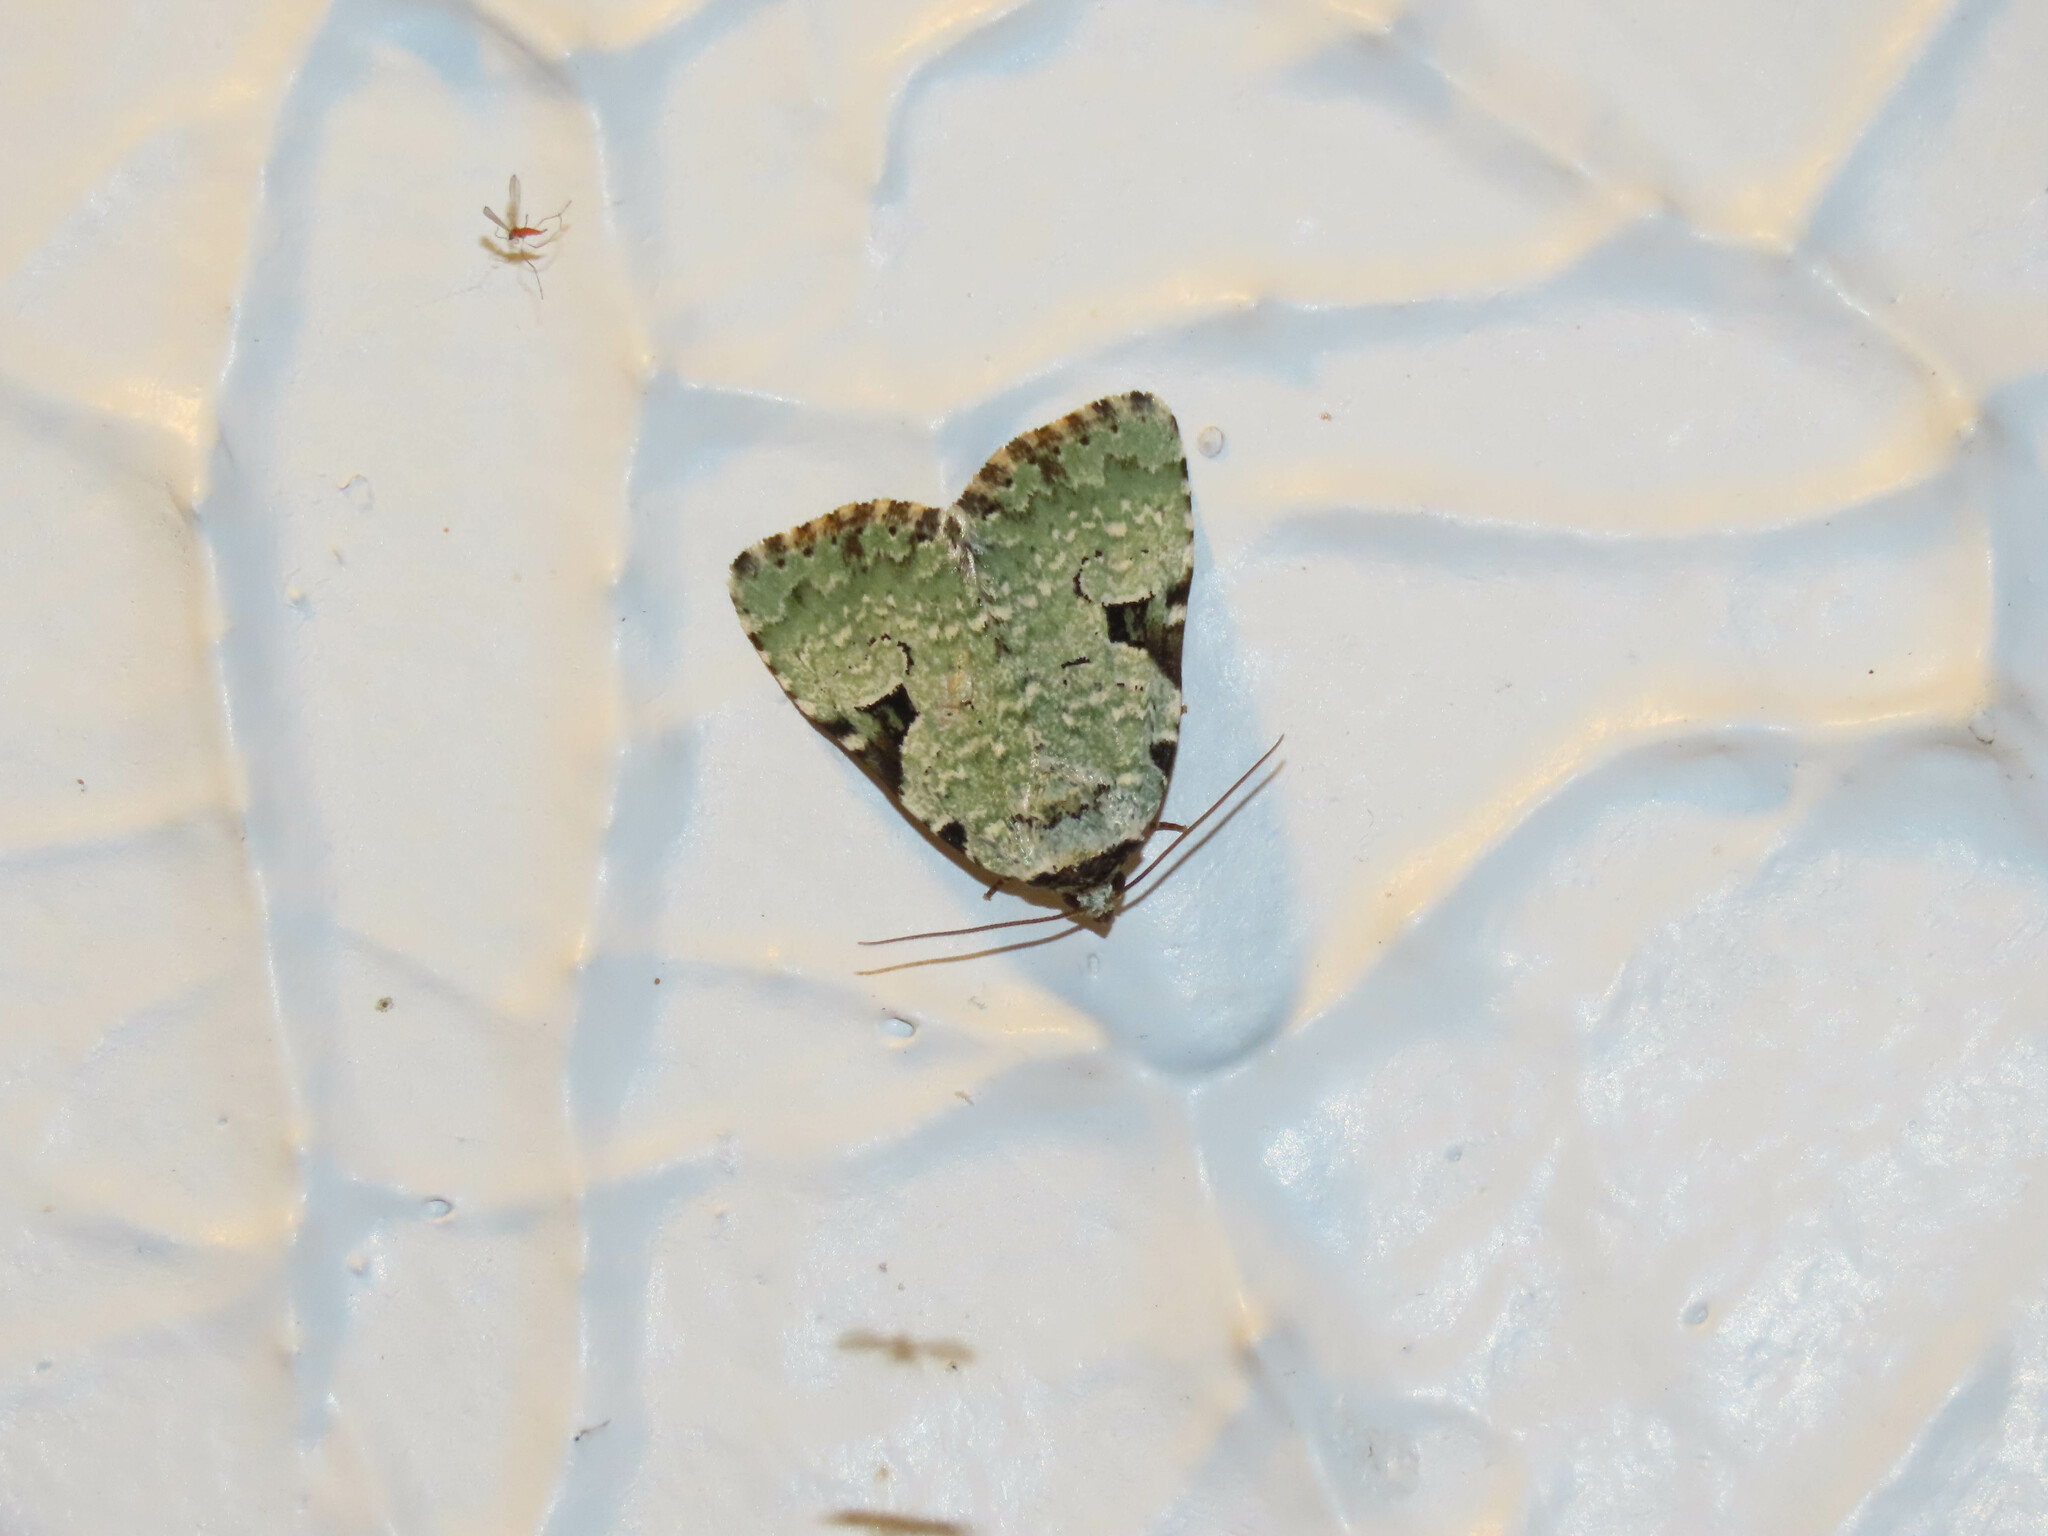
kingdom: Animalia
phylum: Arthropoda
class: Insecta
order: Lepidoptera
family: Noctuidae
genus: Leuconycta
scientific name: Leuconycta diphteroides
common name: Green leuconycta moth
